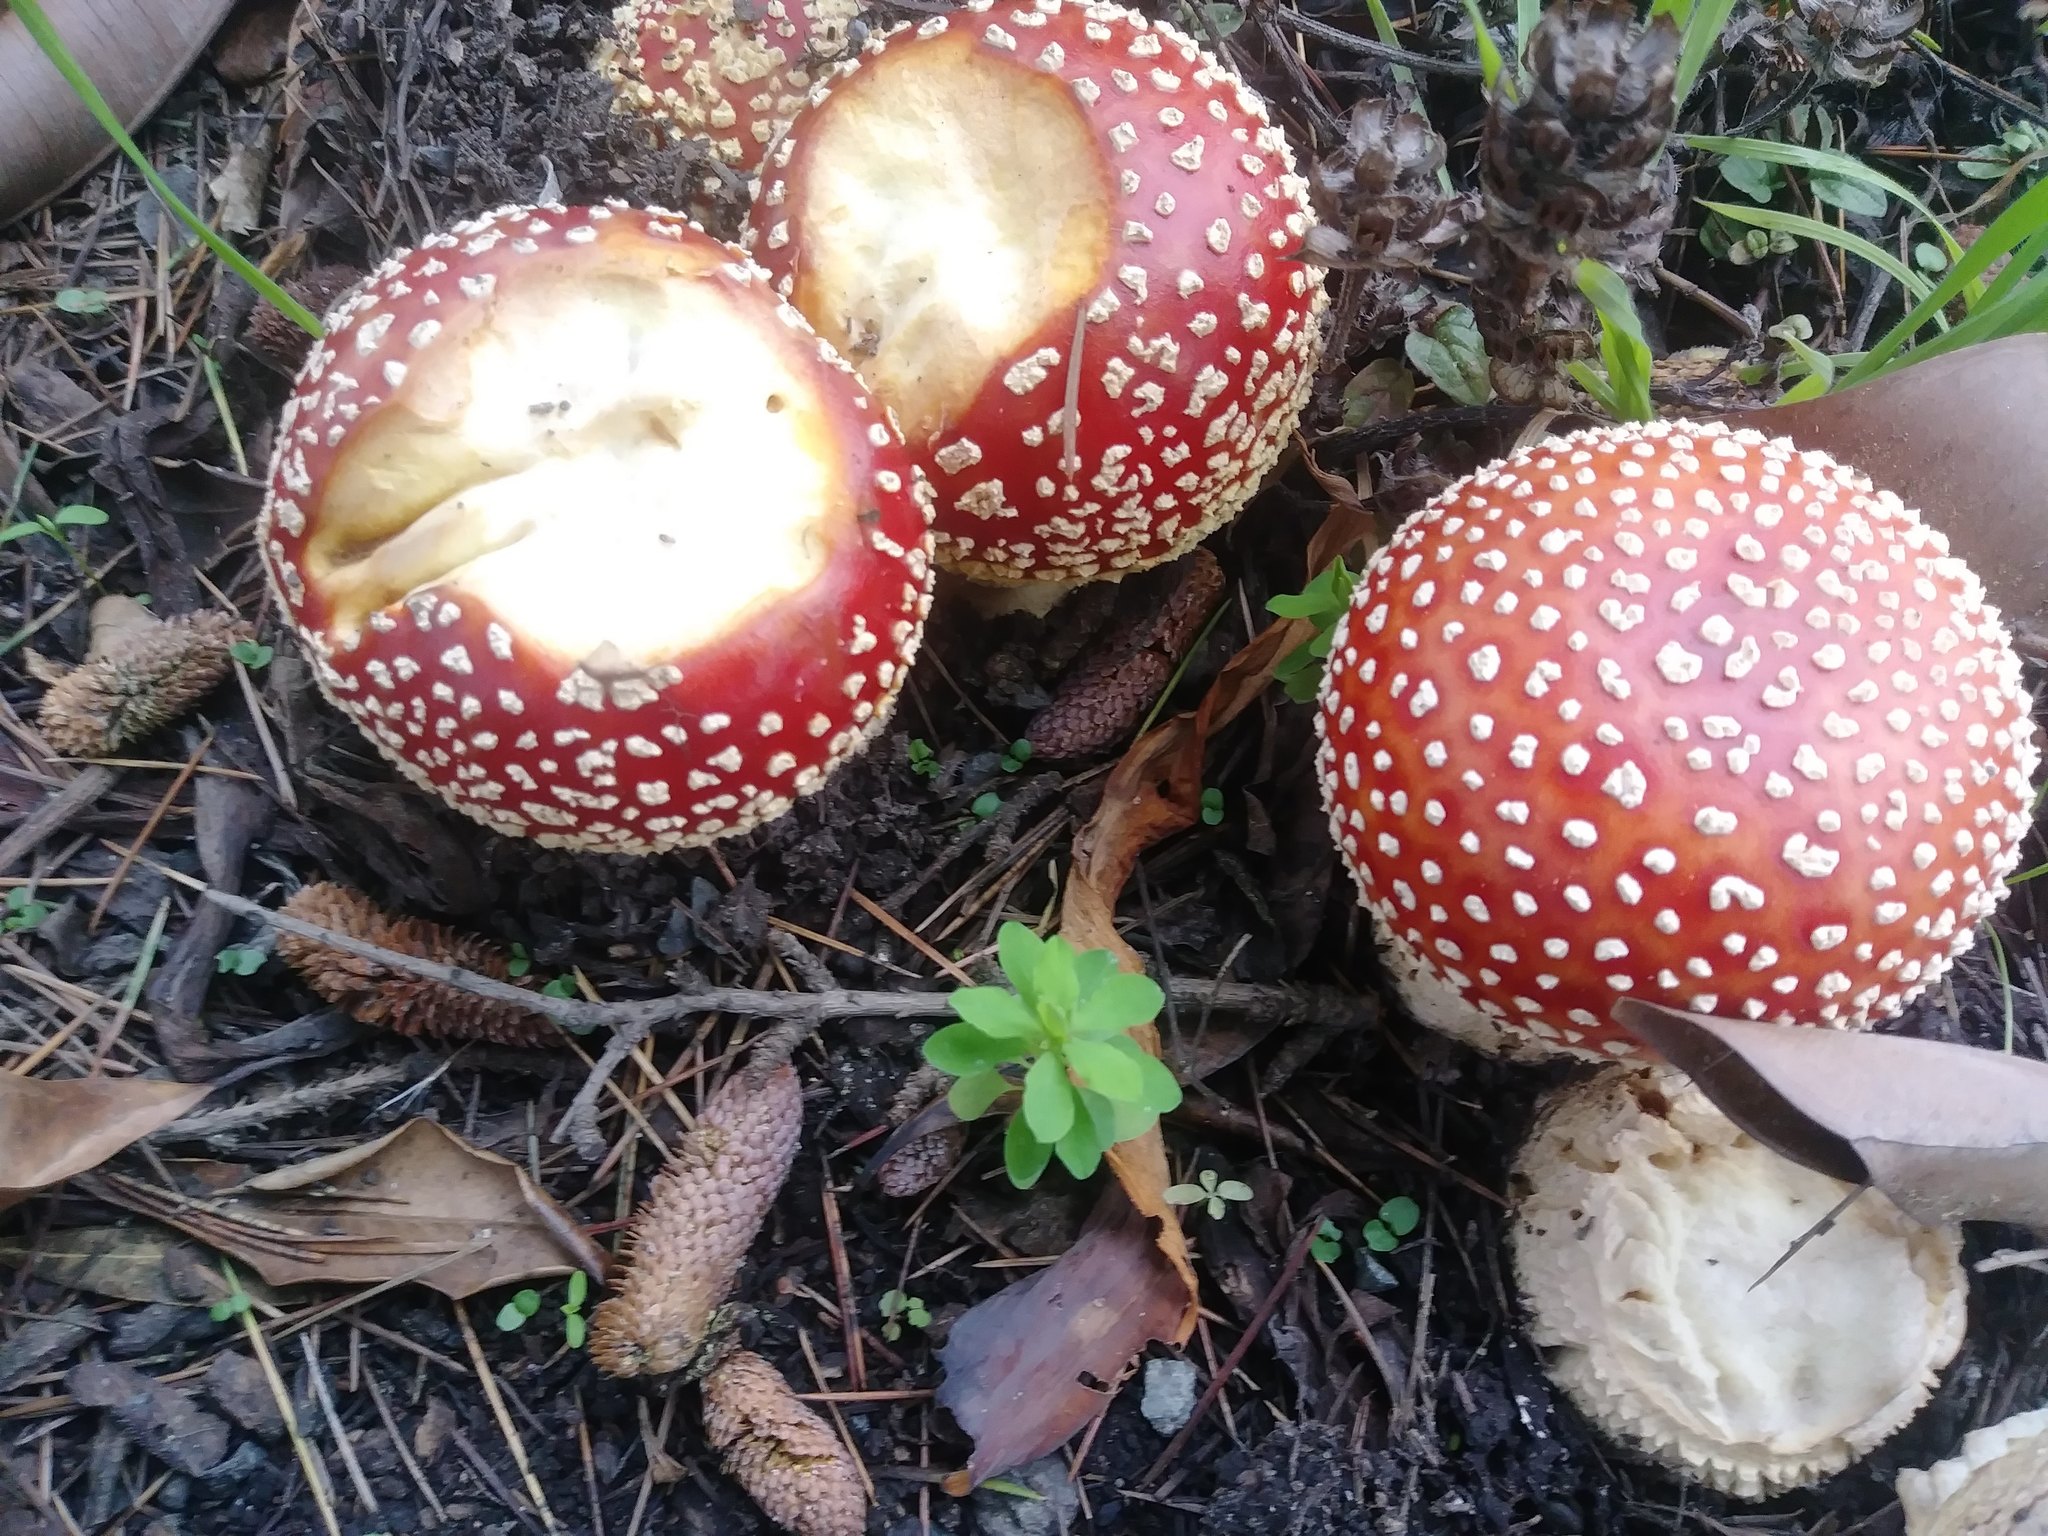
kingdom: Fungi
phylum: Basidiomycota
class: Agaricomycetes
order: Agaricales
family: Amanitaceae
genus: Amanita
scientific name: Amanita muscaria
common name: Fly agaric
